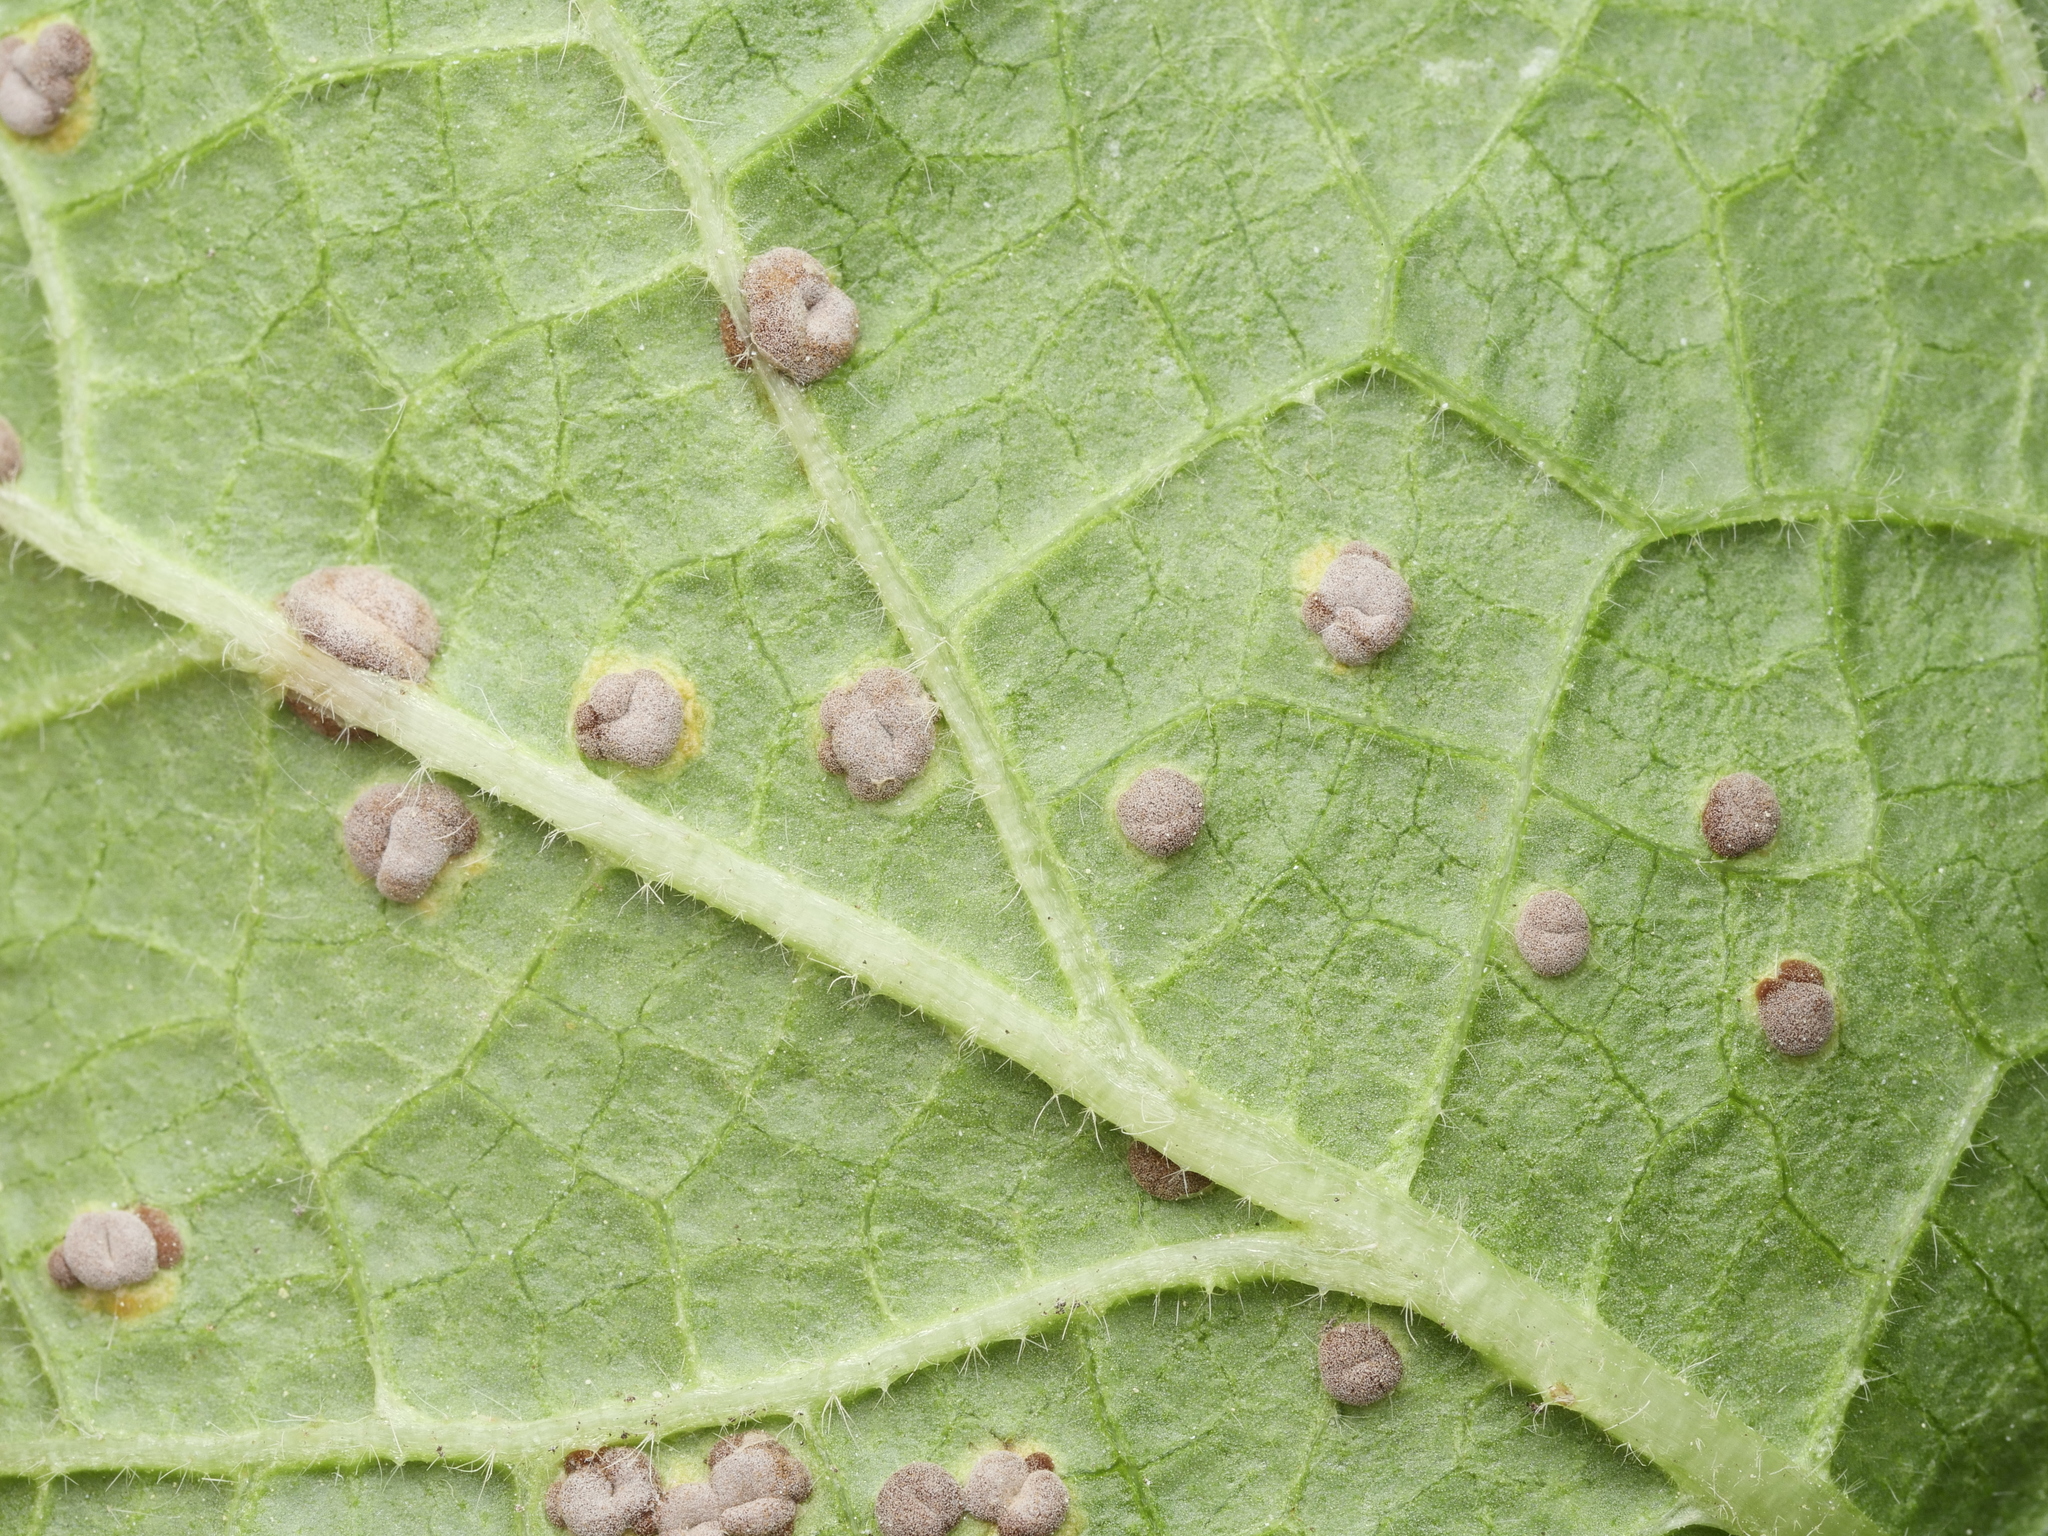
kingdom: Fungi
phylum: Basidiomycota
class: Pucciniomycetes
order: Pucciniales
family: Pucciniaceae
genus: Puccinia
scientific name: Puccinia malvacearum
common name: Hollyhock rust
